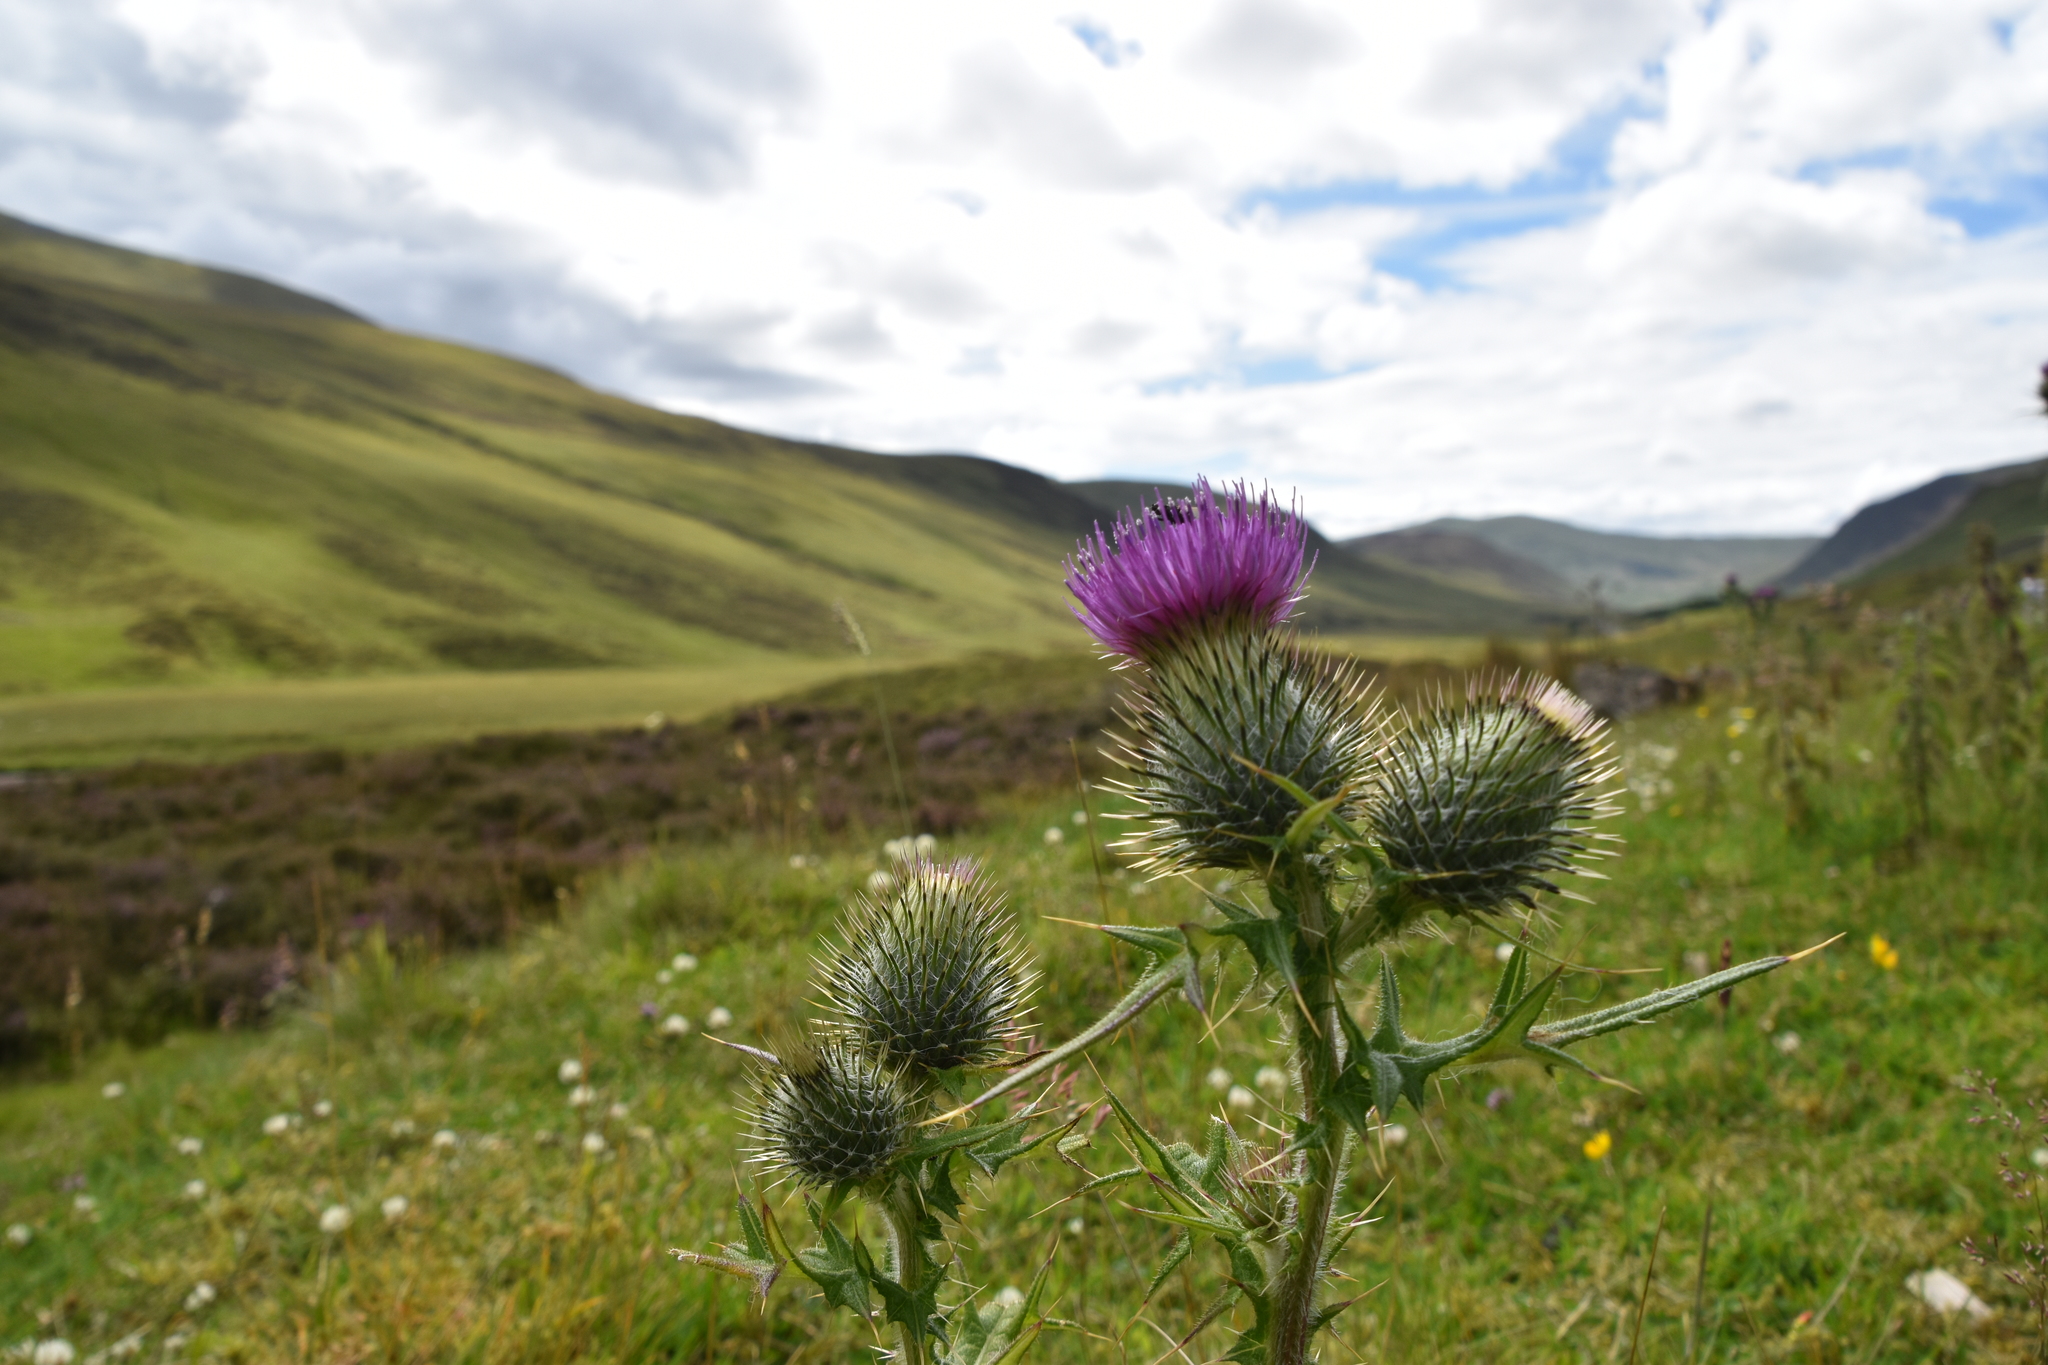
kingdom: Plantae
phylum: Tracheophyta
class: Magnoliopsida
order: Asterales
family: Asteraceae
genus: Cirsium
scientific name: Cirsium vulgare
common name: Bull thistle
